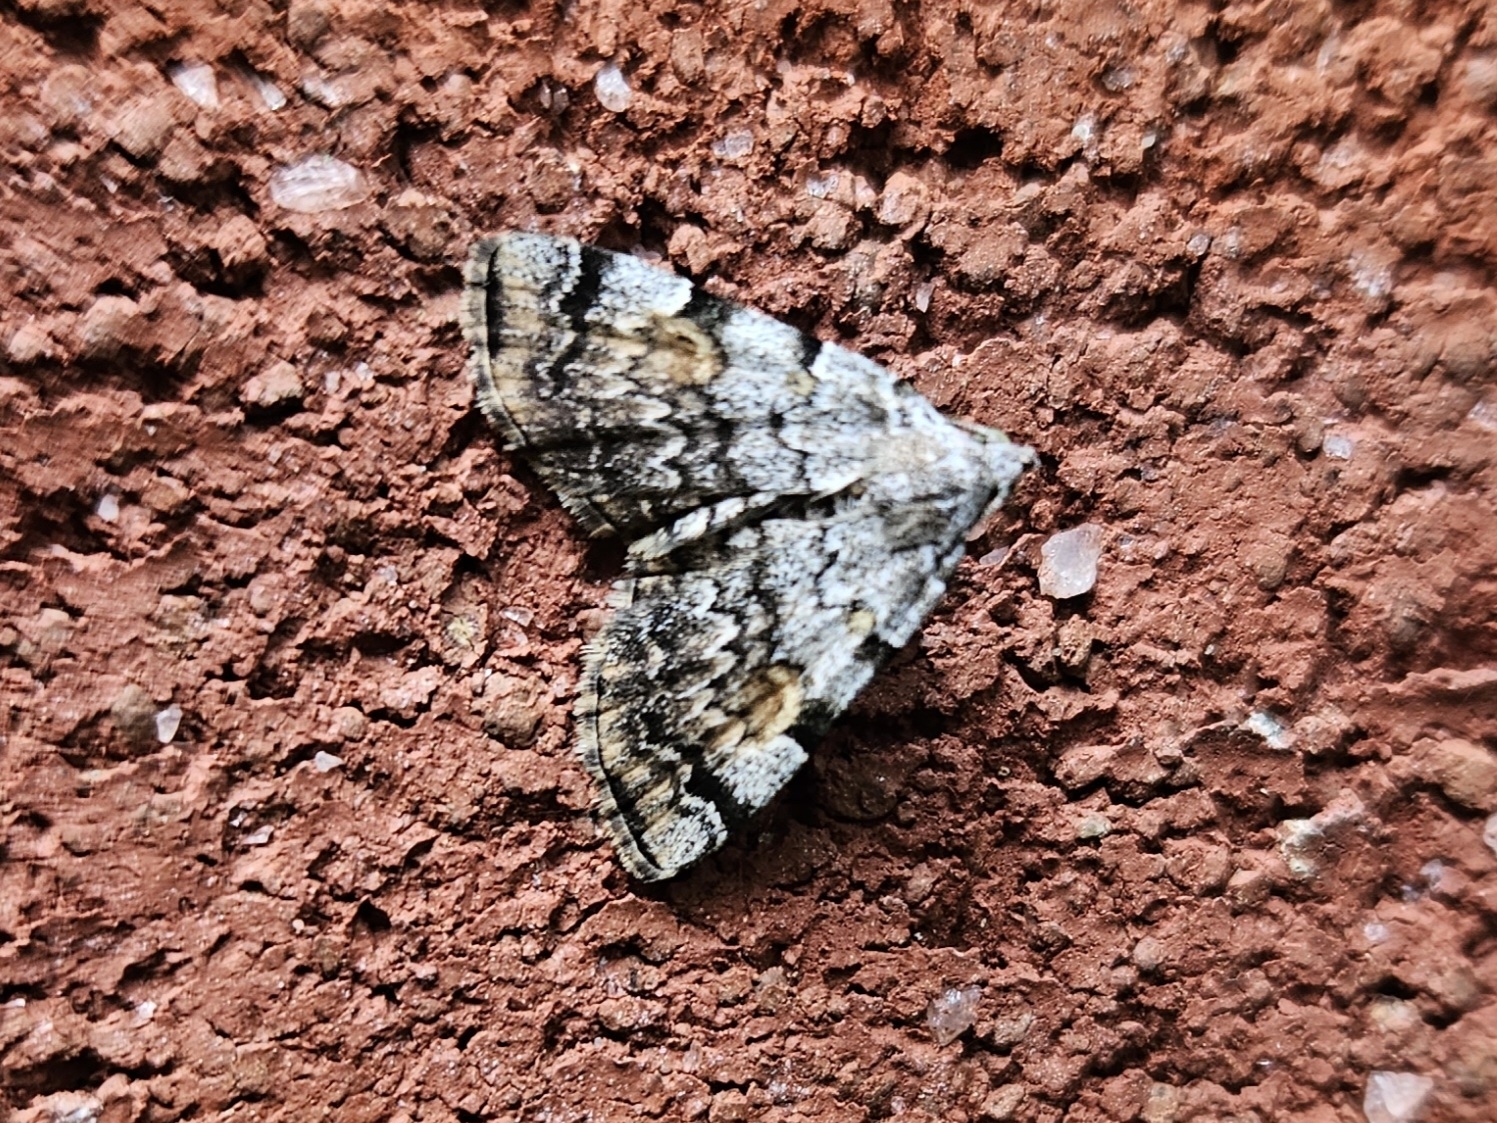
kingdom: Animalia
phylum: Arthropoda
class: Insecta
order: Lepidoptera
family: Erebidae
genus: Idia
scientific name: Idia americalis
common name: American idia moth
